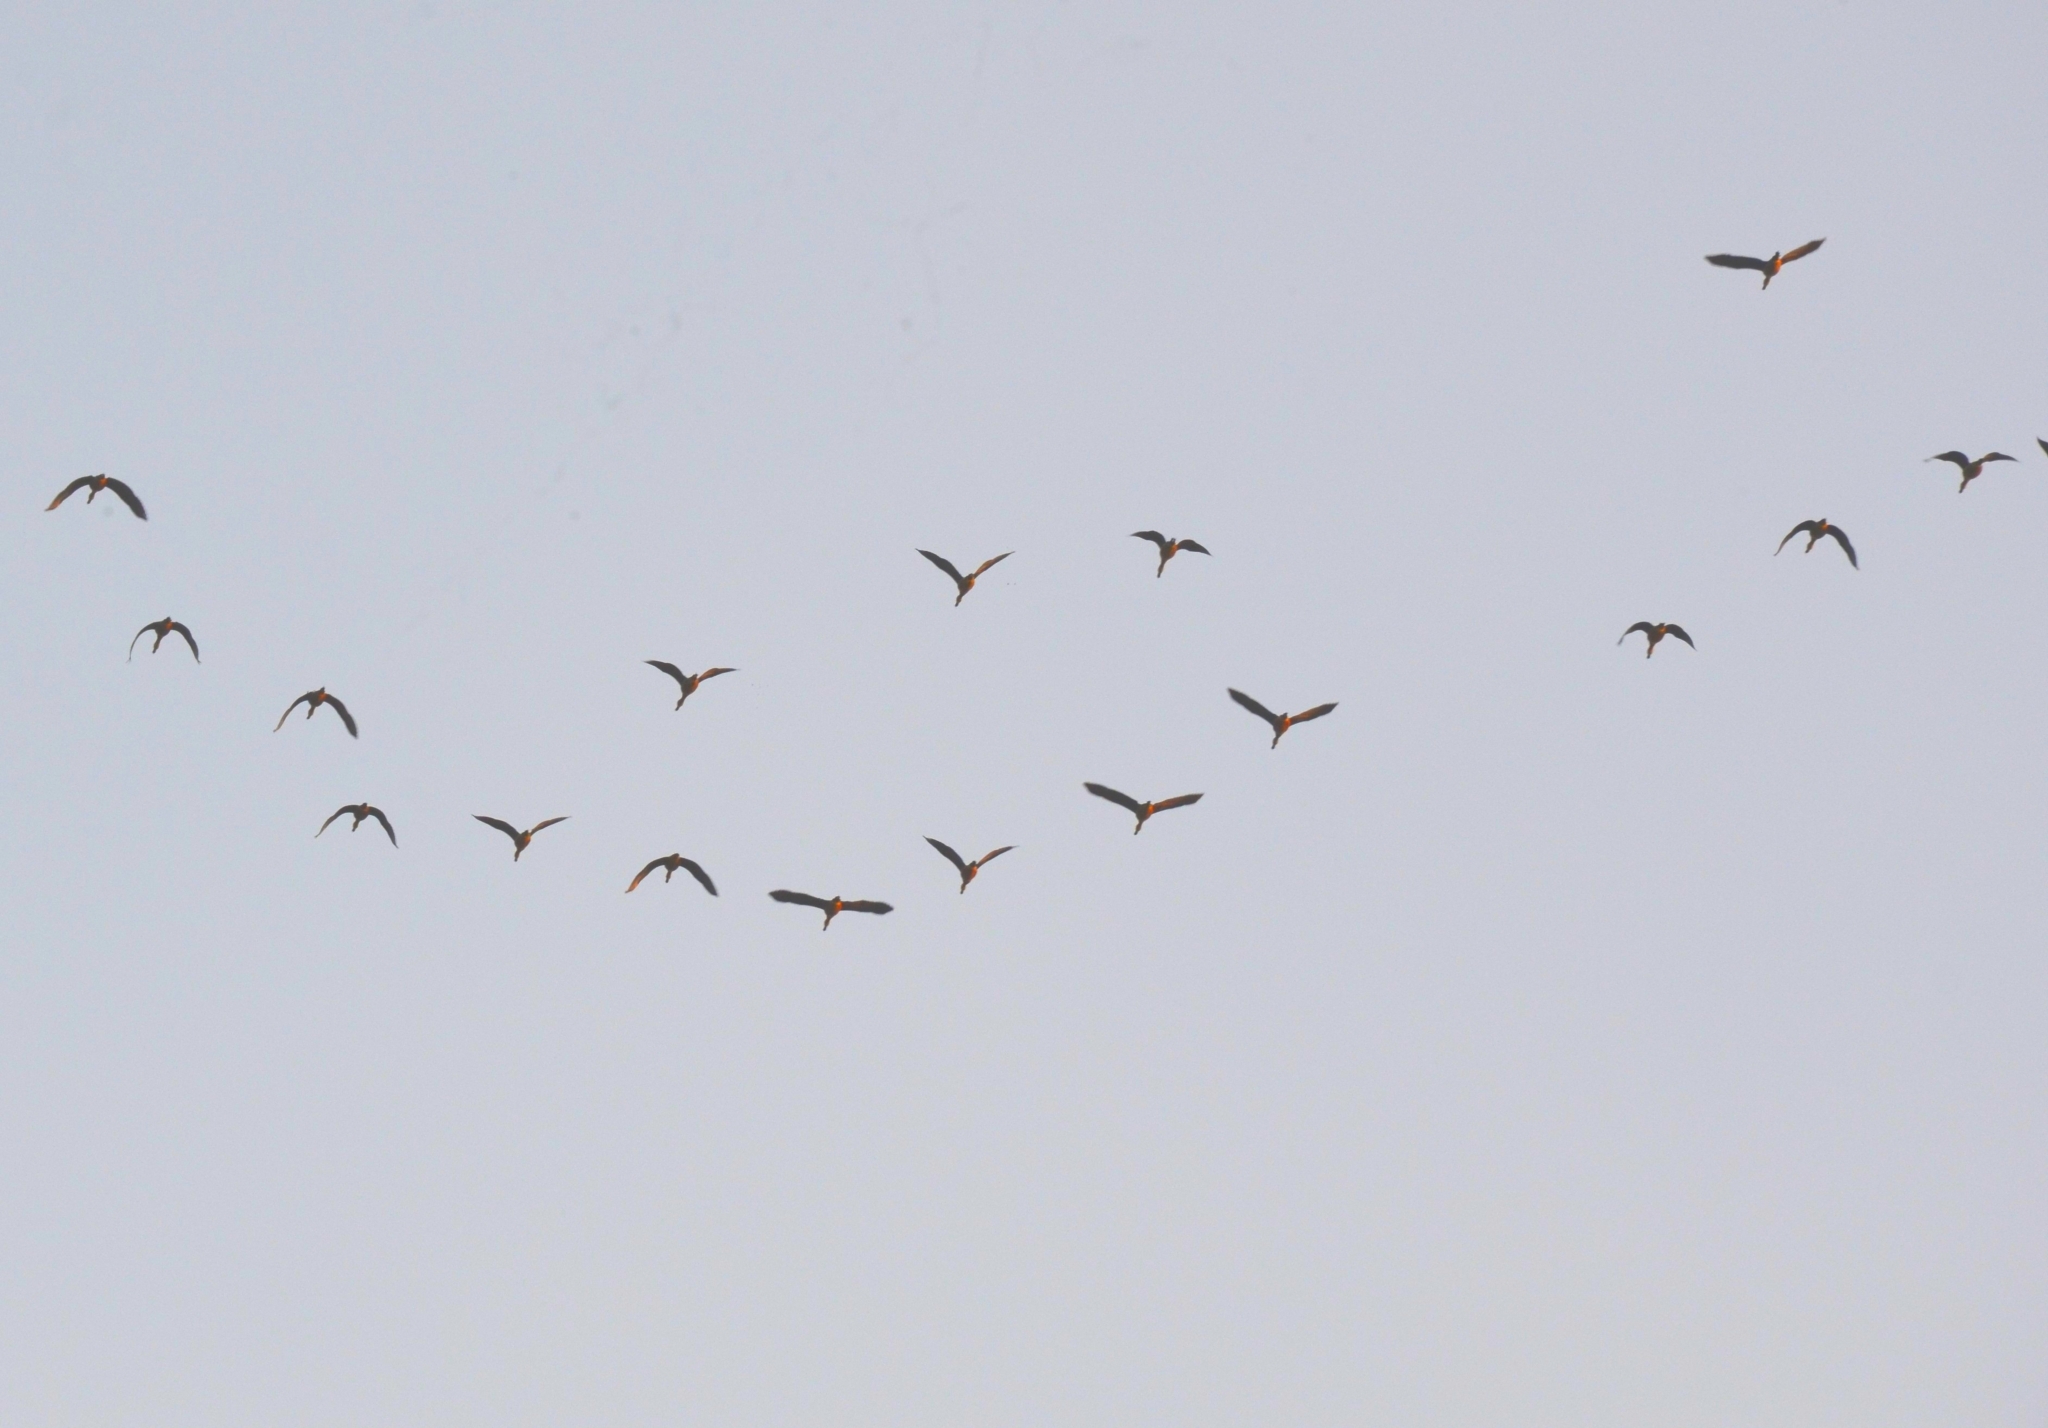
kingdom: Animalia
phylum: Chordata
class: Aves
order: Anseriformes
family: Anatidae
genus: Dendrocygna
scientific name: Dendrocygna javanica
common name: Lesser whistling-duck
